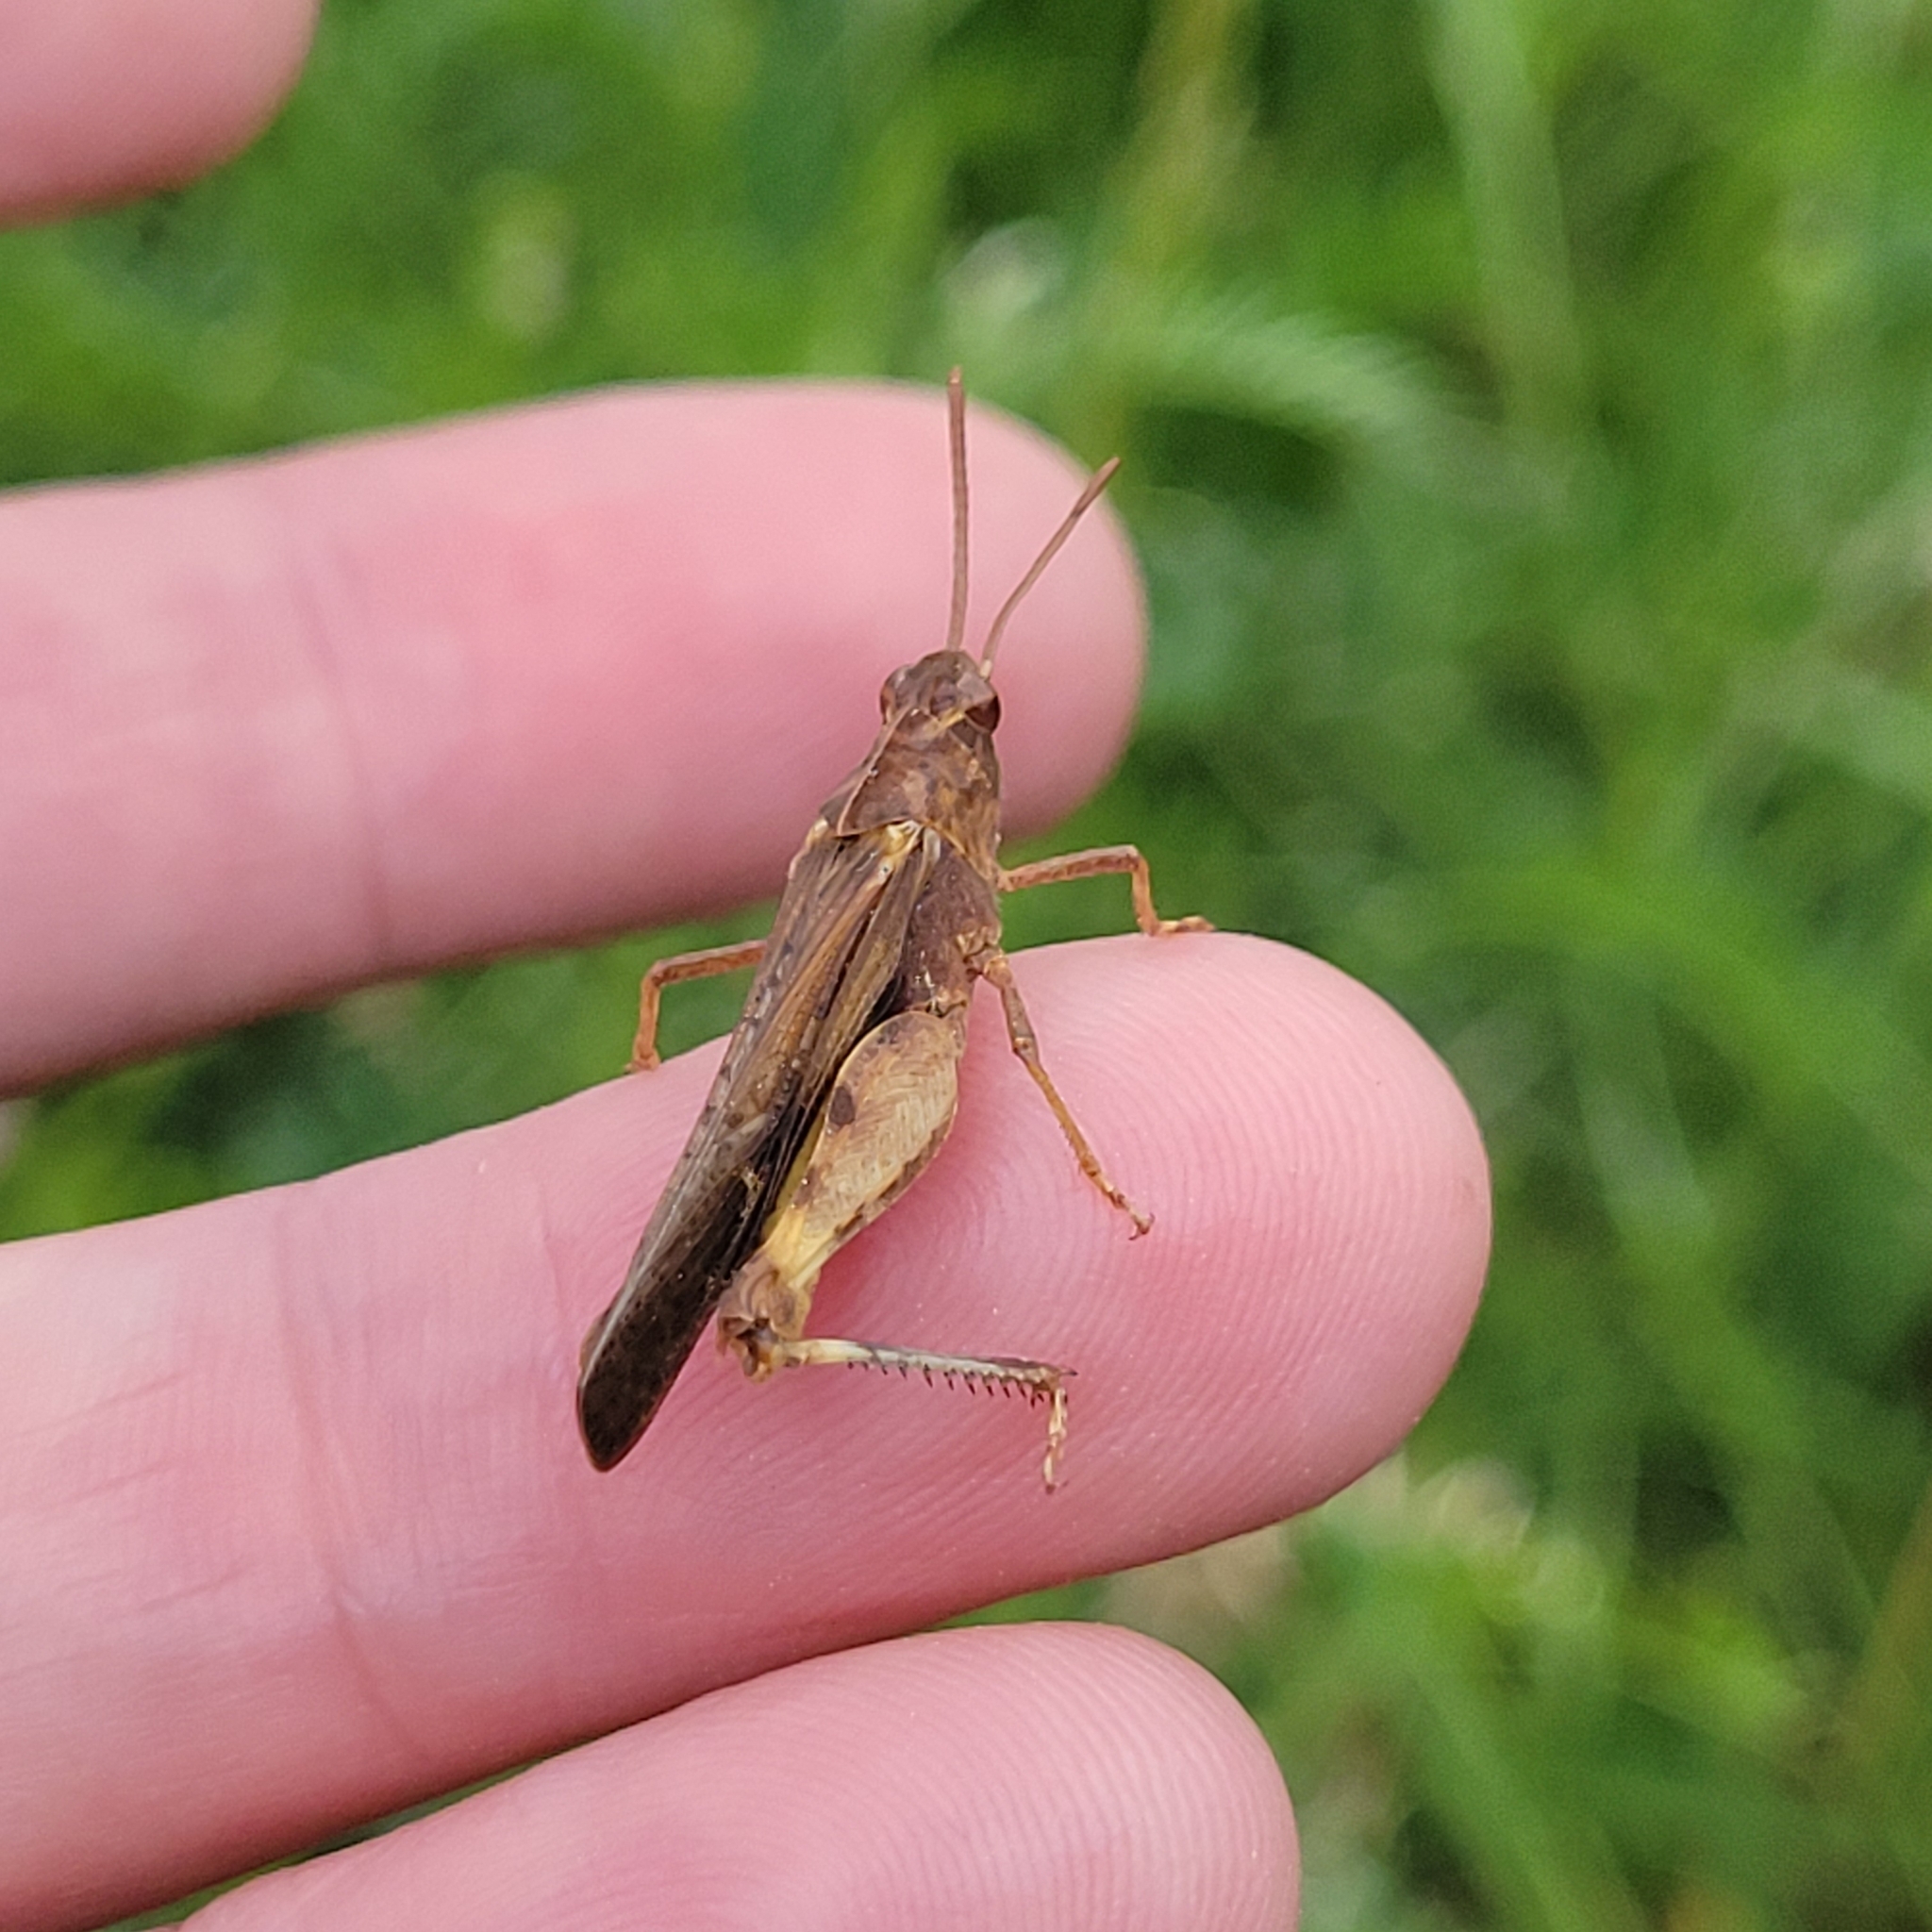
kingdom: Animalia
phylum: Arthropoda
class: Insecta
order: Orthoptera
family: Acrididae
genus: Chortophaga
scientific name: Chortophaga viridifasciata
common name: Green-striped grasshopper
